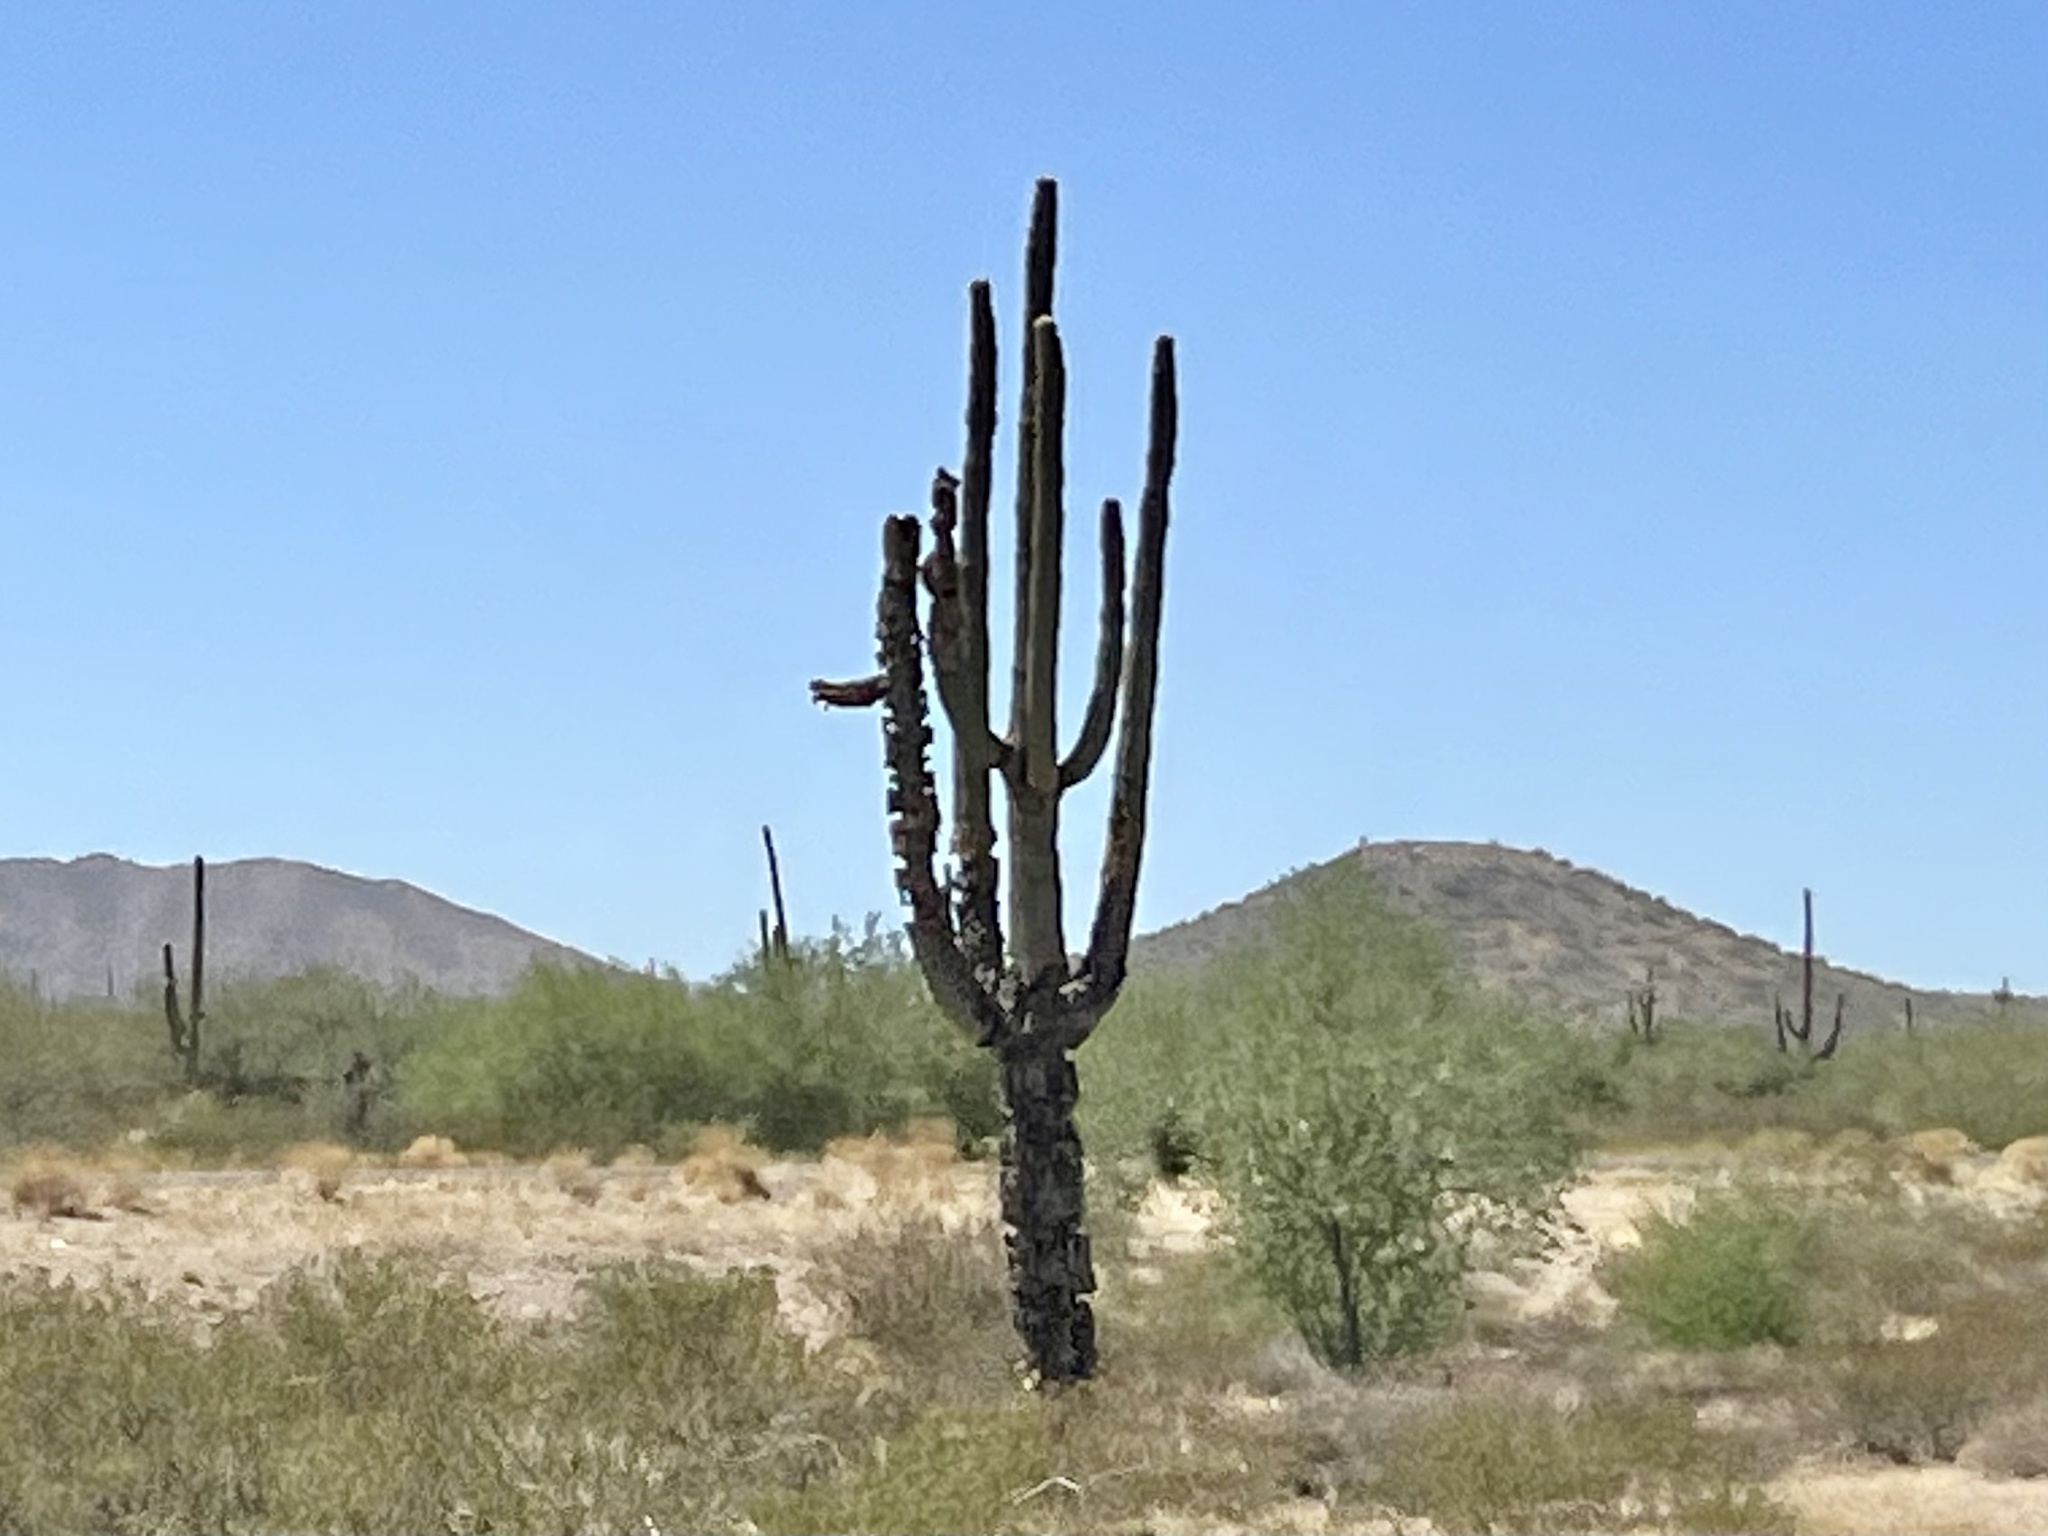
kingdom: Plantae
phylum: Tracheophyta
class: Magnoliopsida
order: Caryophyllales
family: Cactaceae
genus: Carnegiea
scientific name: Carnegiea gigantea
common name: Saguaro
